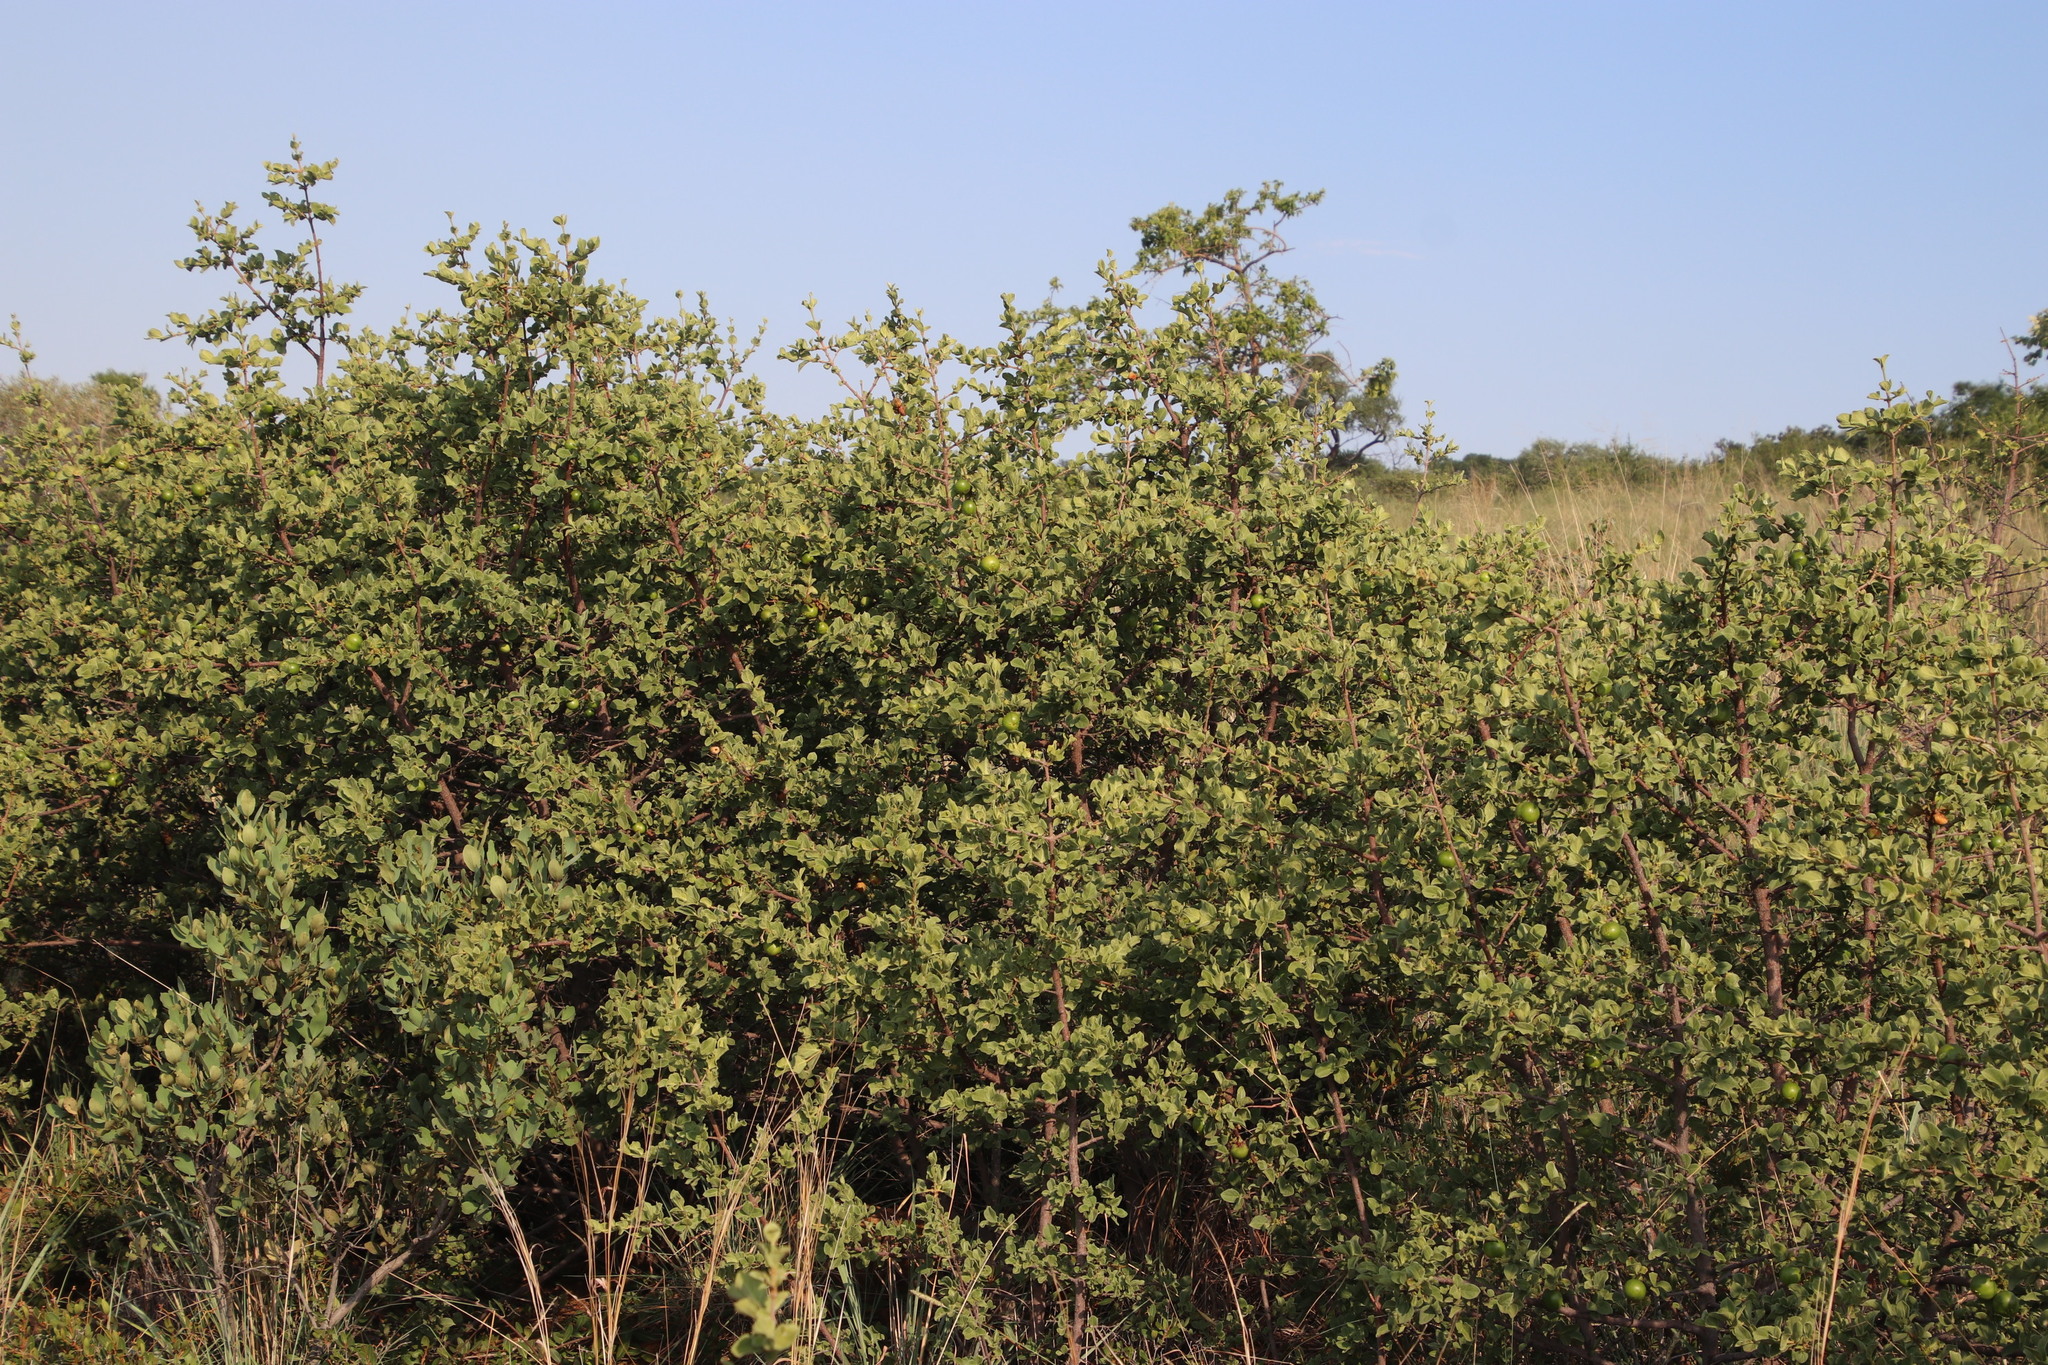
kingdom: Plantae
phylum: Tracheophyta
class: Magnoliopsida
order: Gentianales
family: Rubiaceae
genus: Afrocanthium
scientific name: Afrocanthium gilfillanii
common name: Velvet rock-alder
